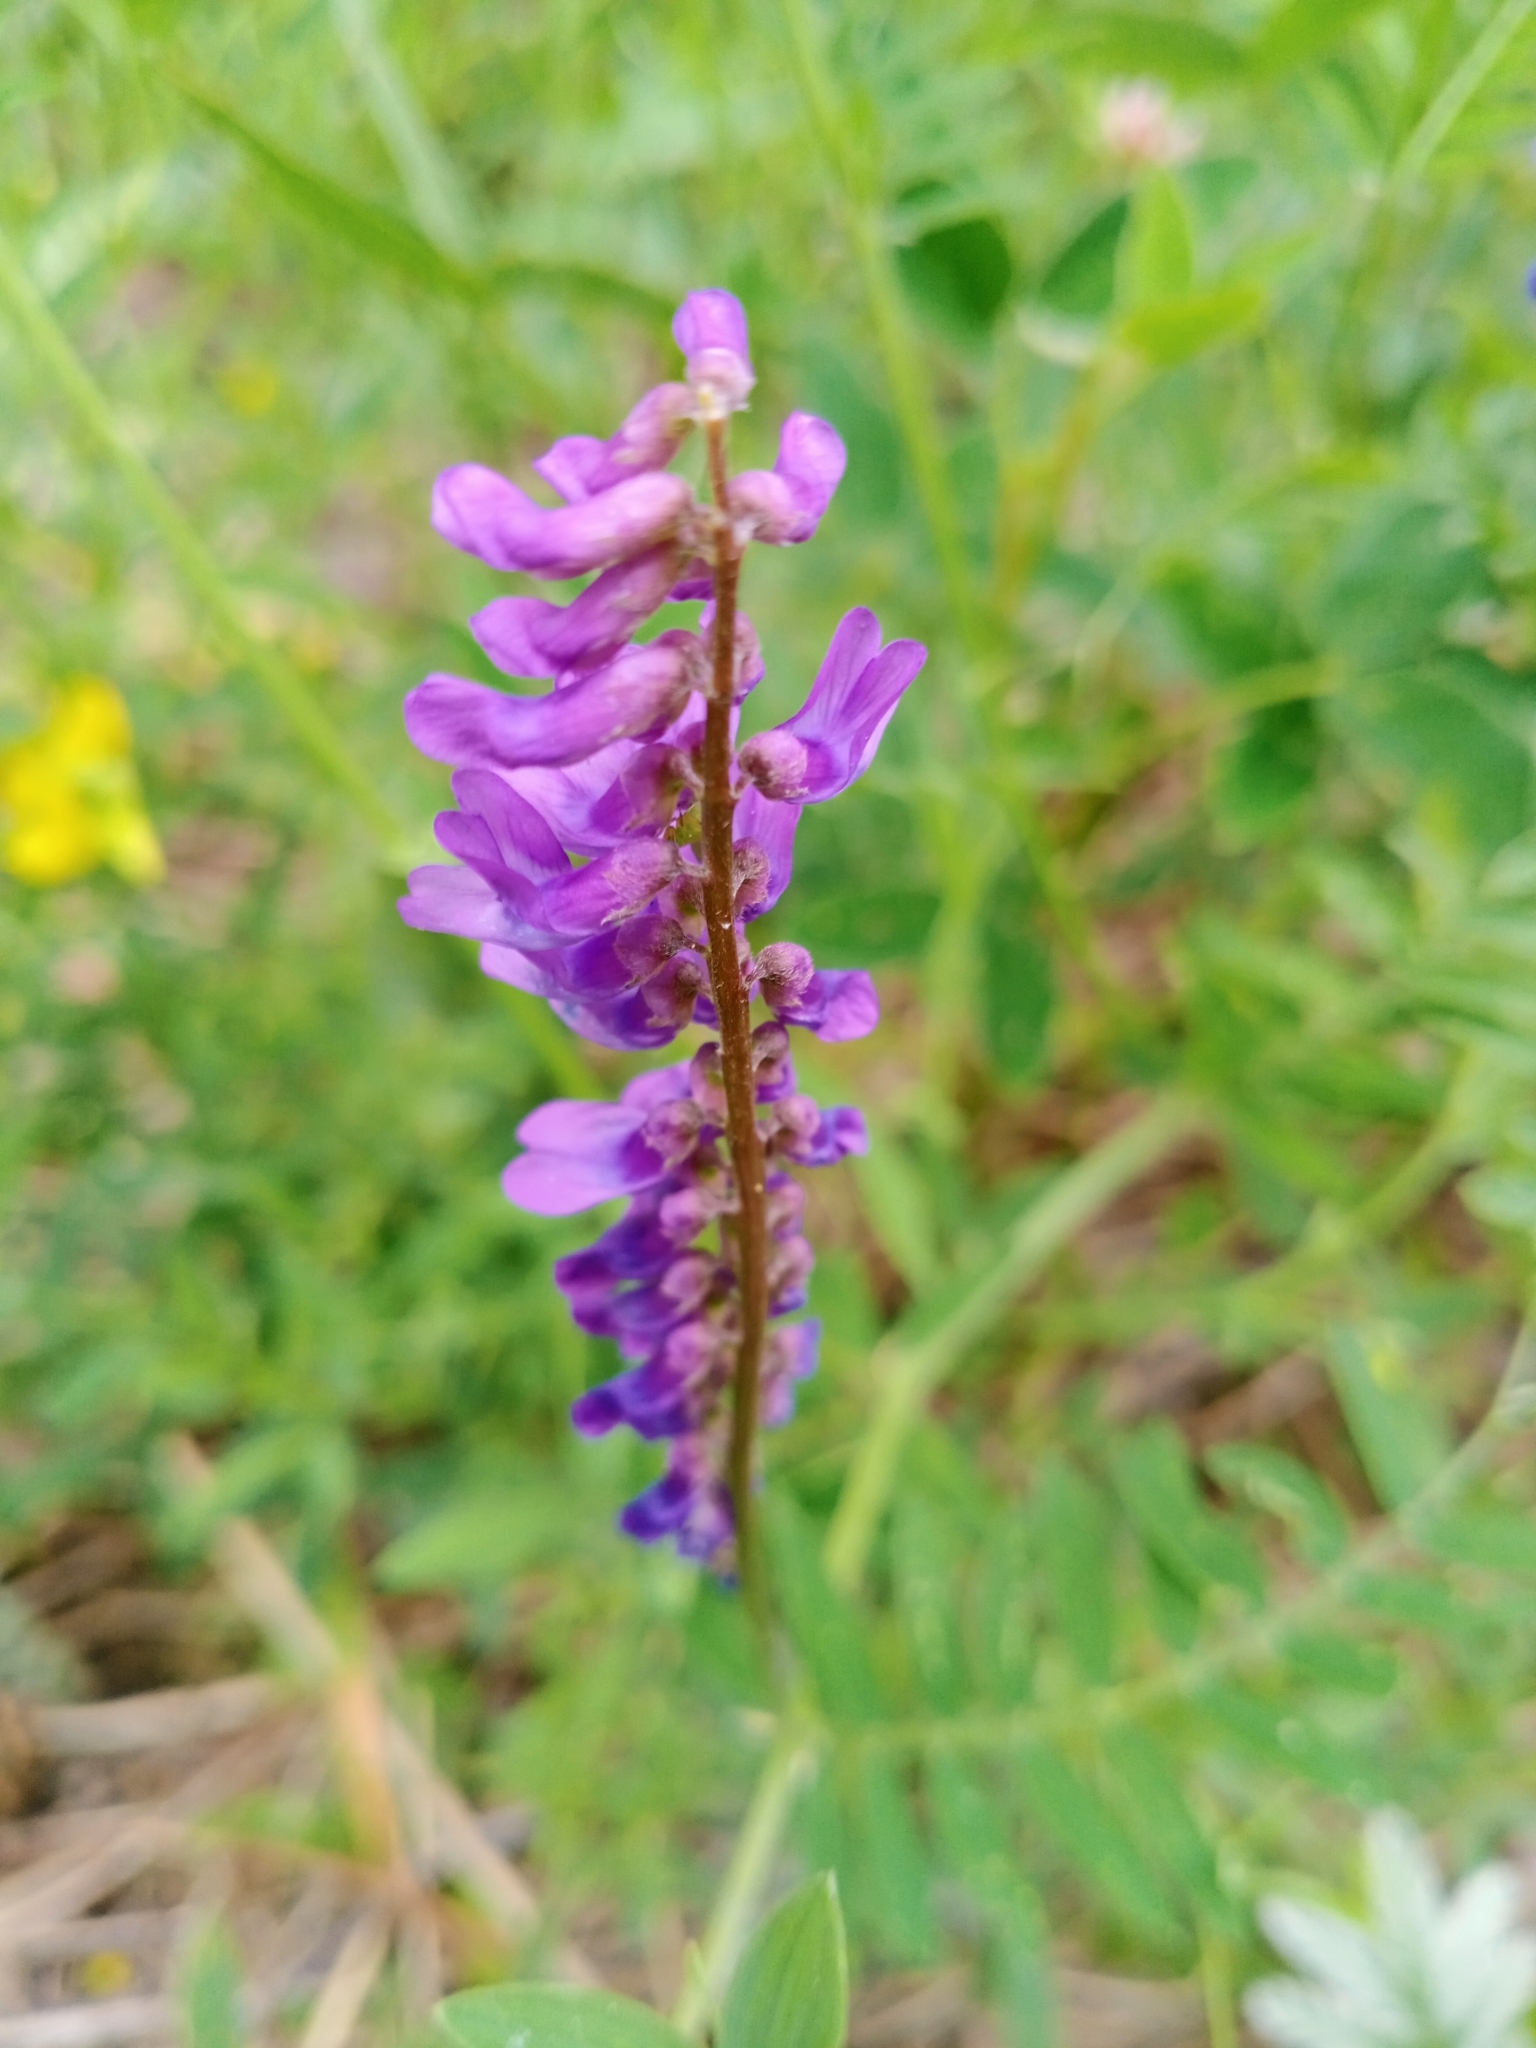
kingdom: Plantae
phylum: Tracheophyta
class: Magnoliopsida
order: Fabales
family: Fabaceae
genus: Vicia
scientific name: Vicia cracca
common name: Bird vetch
